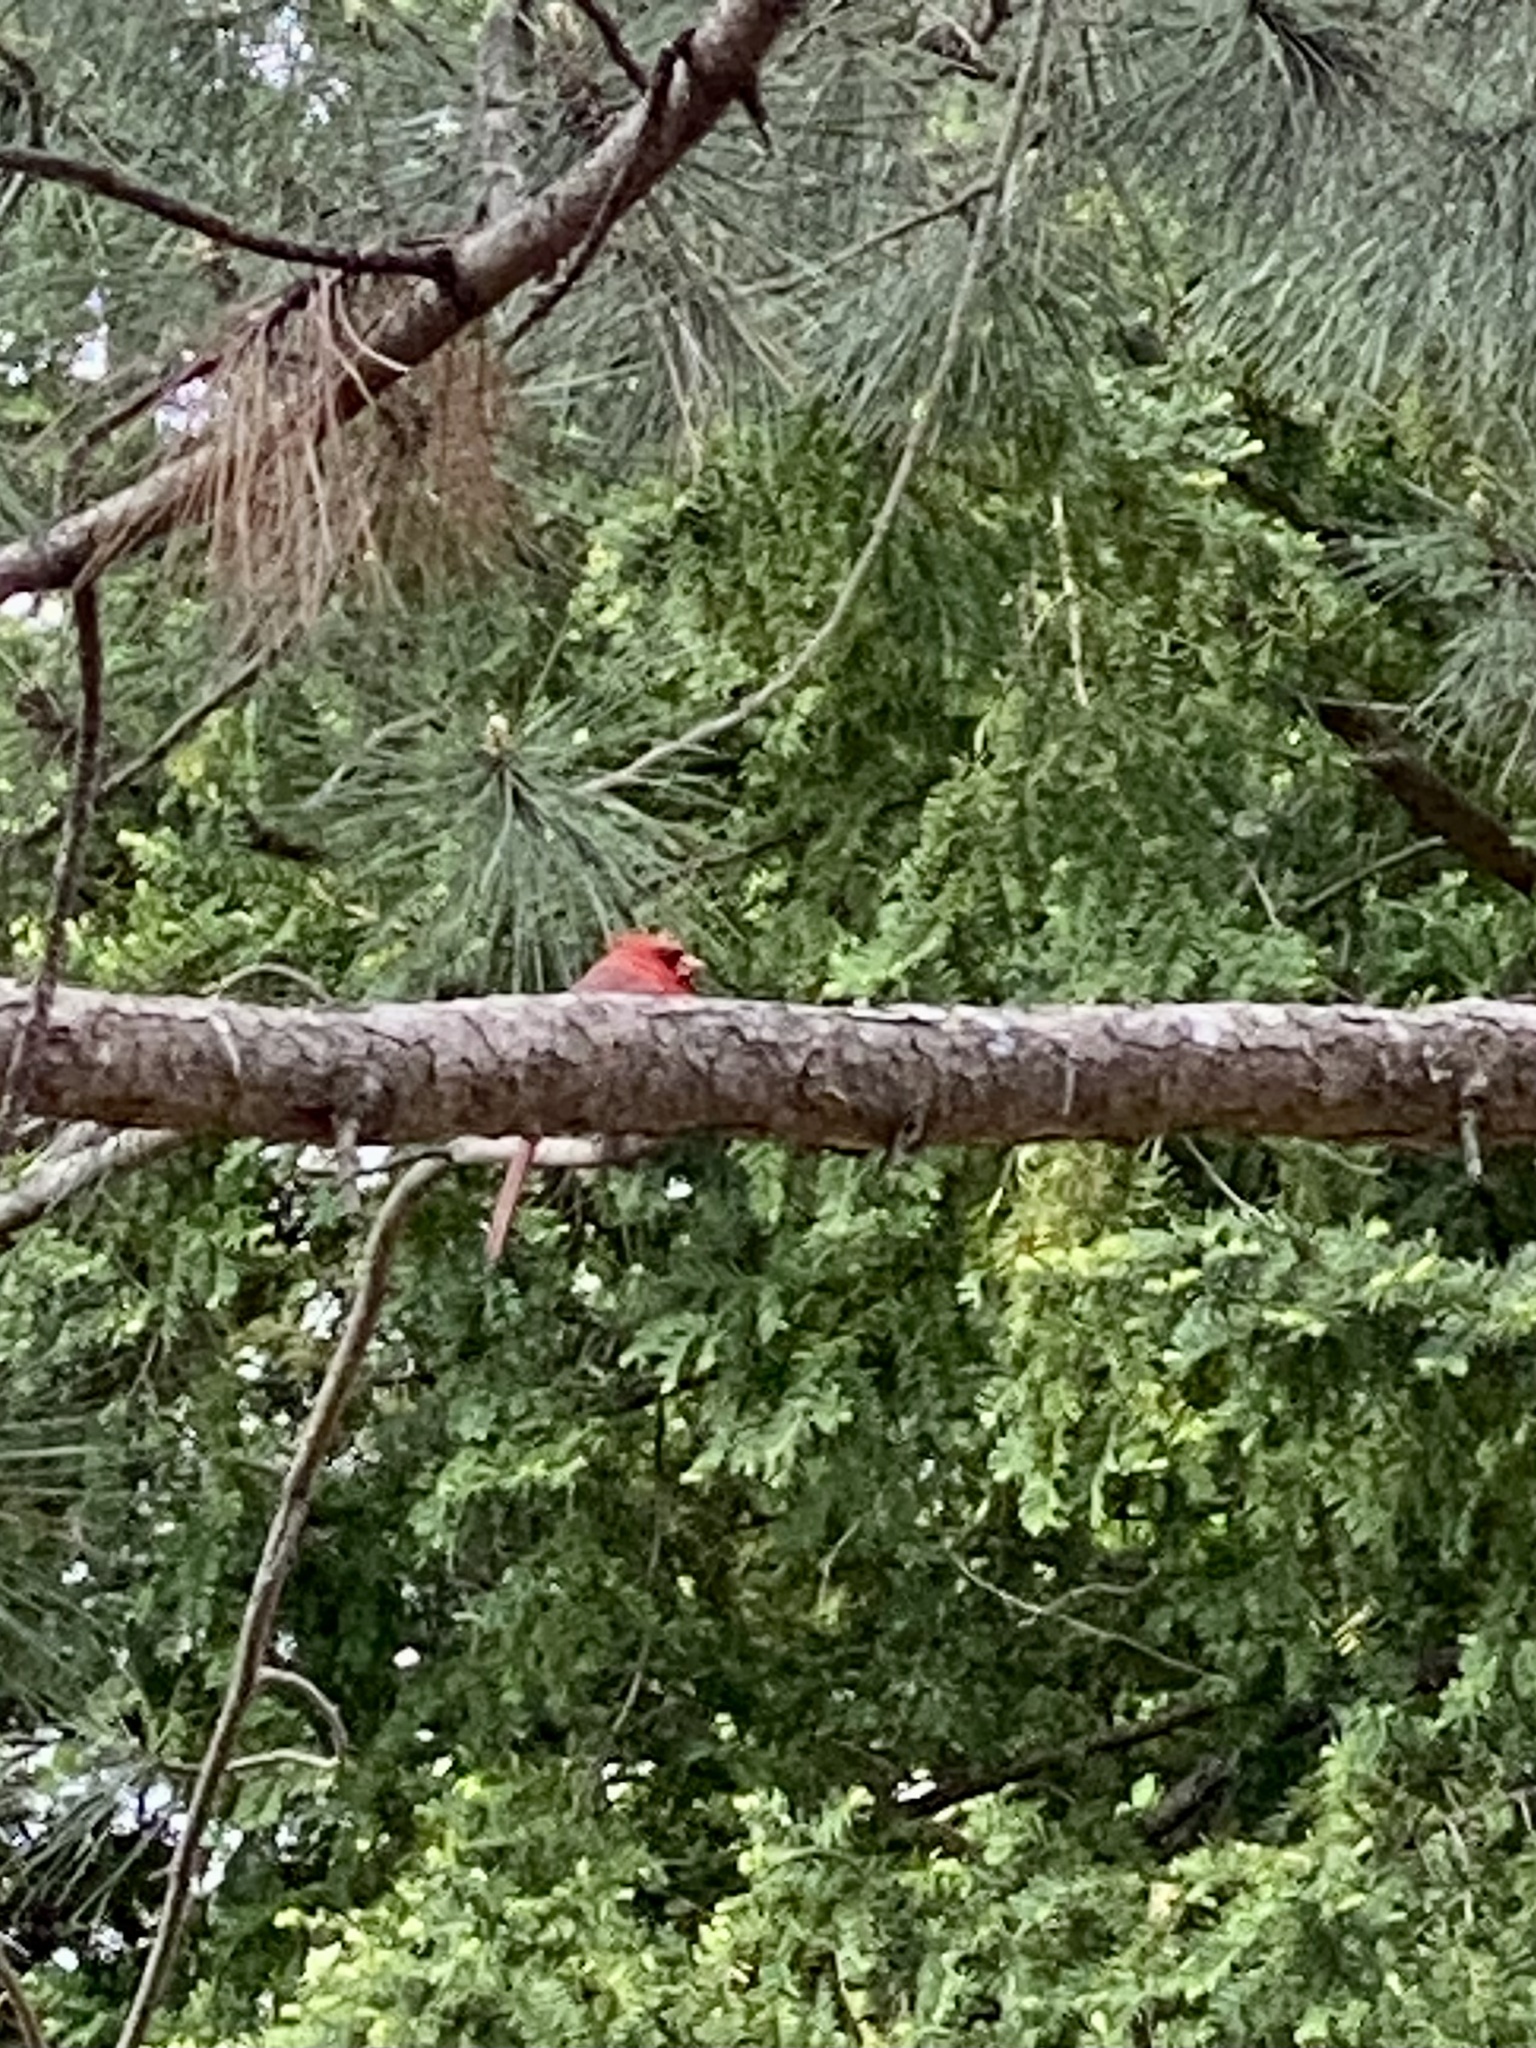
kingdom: Animalia
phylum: Chordata
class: Aves
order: Passeriformes
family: Cardinalidae
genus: Cardinalis
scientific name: Cardinalis cardinalis
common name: Northern cardinal
